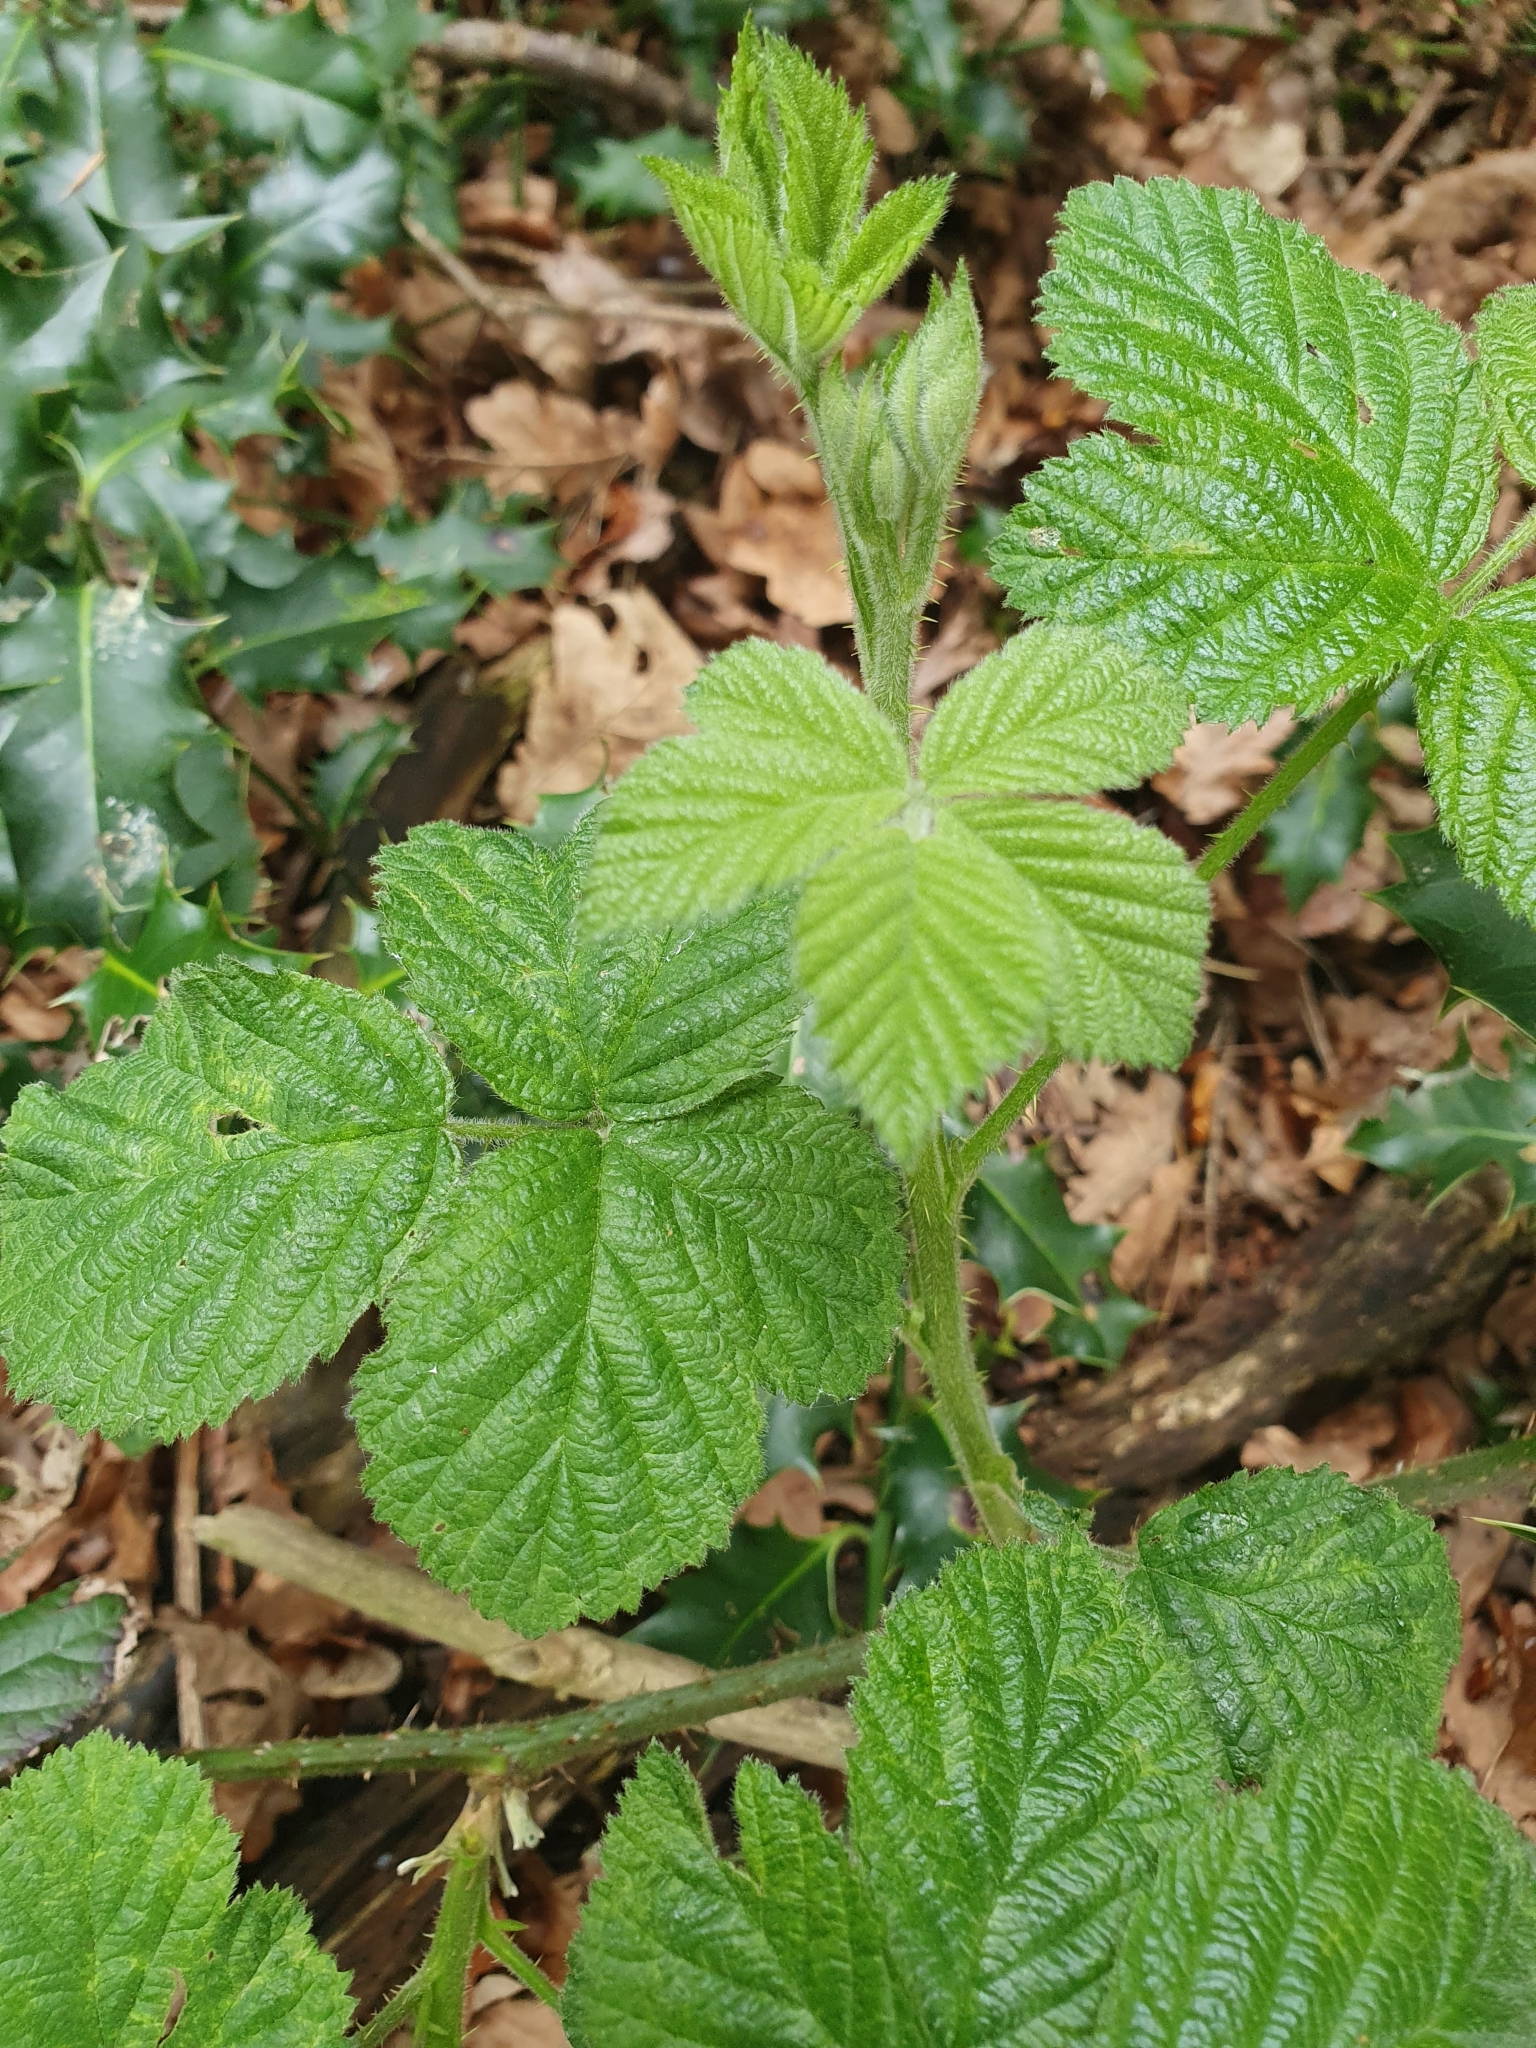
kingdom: Plantae
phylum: Tracheophyta
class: Magnoliopsida
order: Rosales
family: Rosaceae
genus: Rubus
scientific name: Rubus fruticosus
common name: Blackberry, bramble
